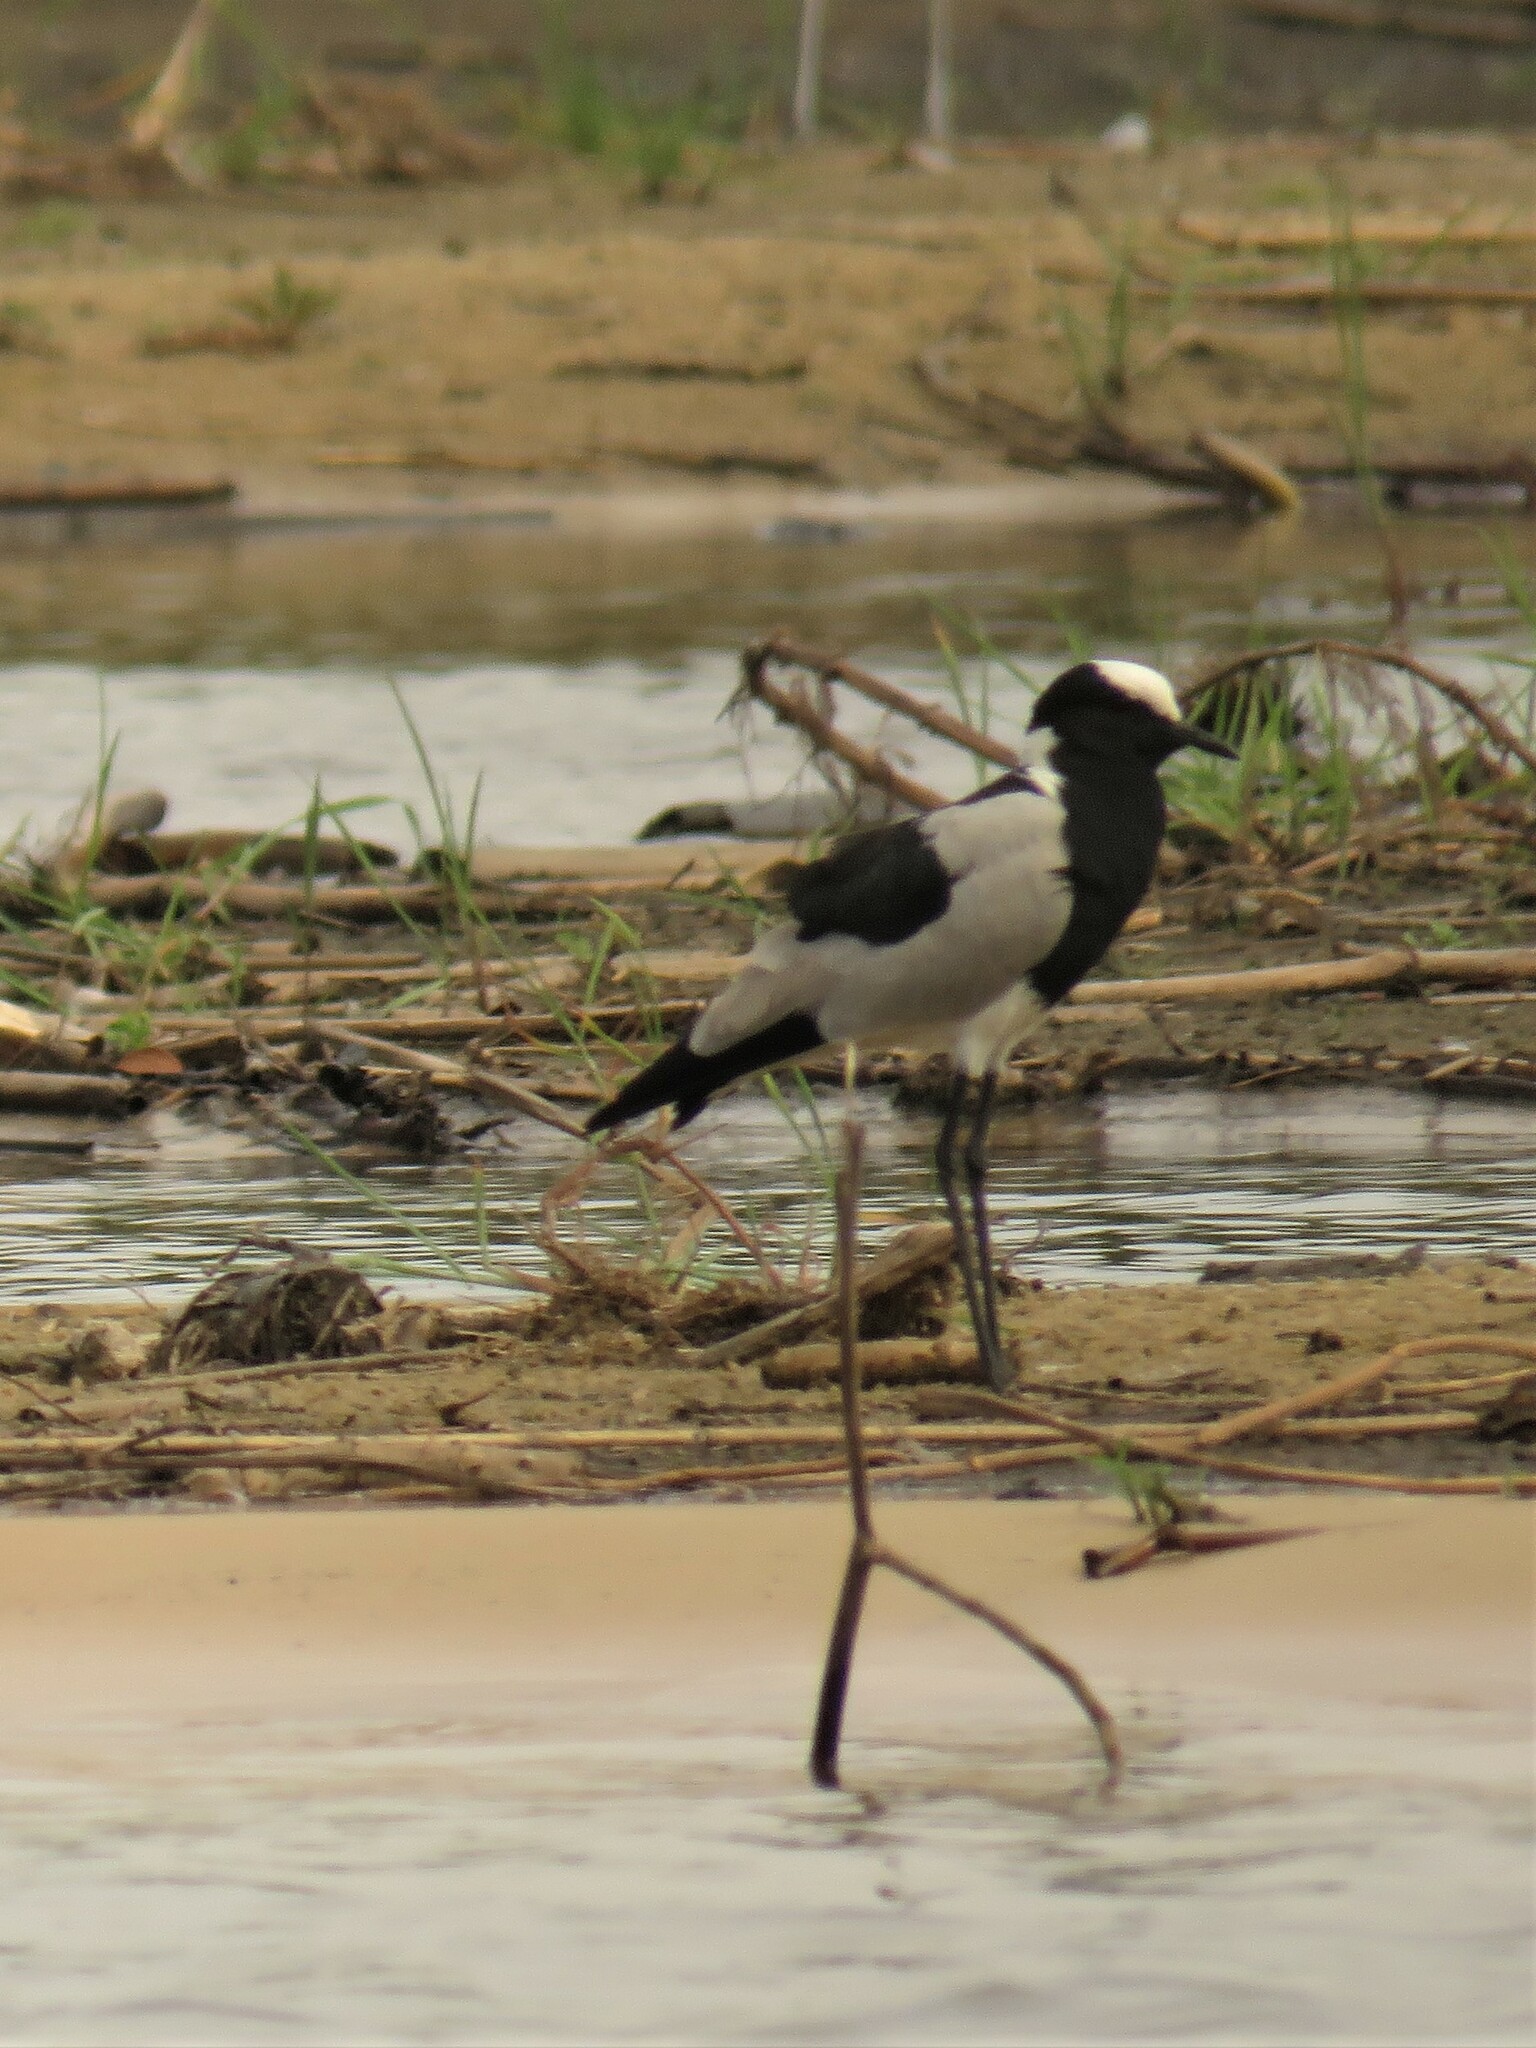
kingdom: Animalia
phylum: Chordata
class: Aves
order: Charadriiformes
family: Charadriidae
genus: Vanellus
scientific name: Vanellus armatus
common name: Blacksmith lapwing
